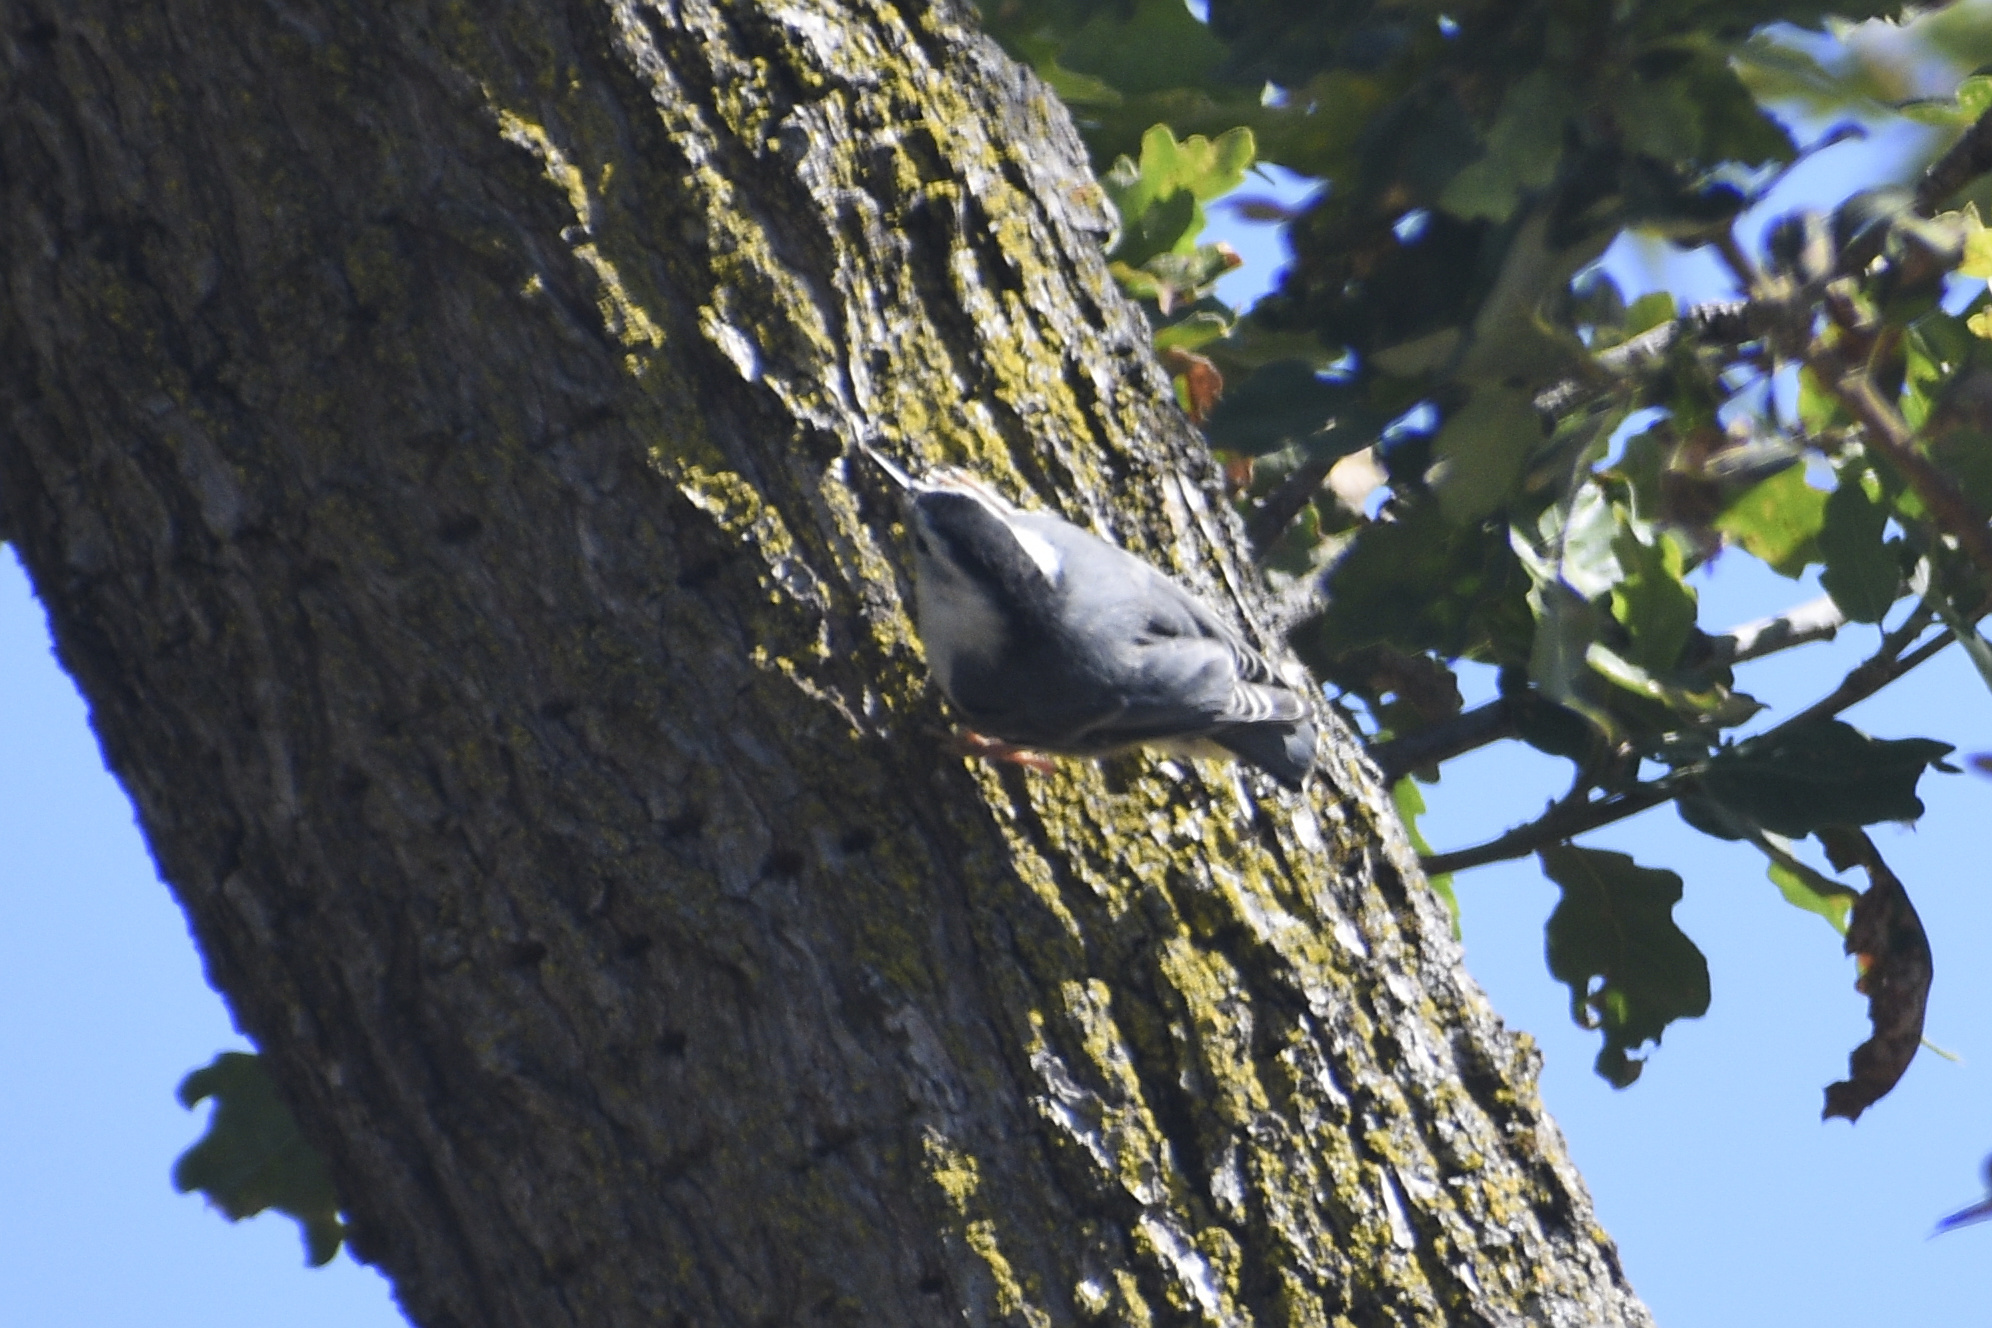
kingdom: Animalia
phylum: Chordata
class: Aves
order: Passeriformes
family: Sittidae
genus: Sitta
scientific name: Sitta carolinensis
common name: White-breasted nuthatch
